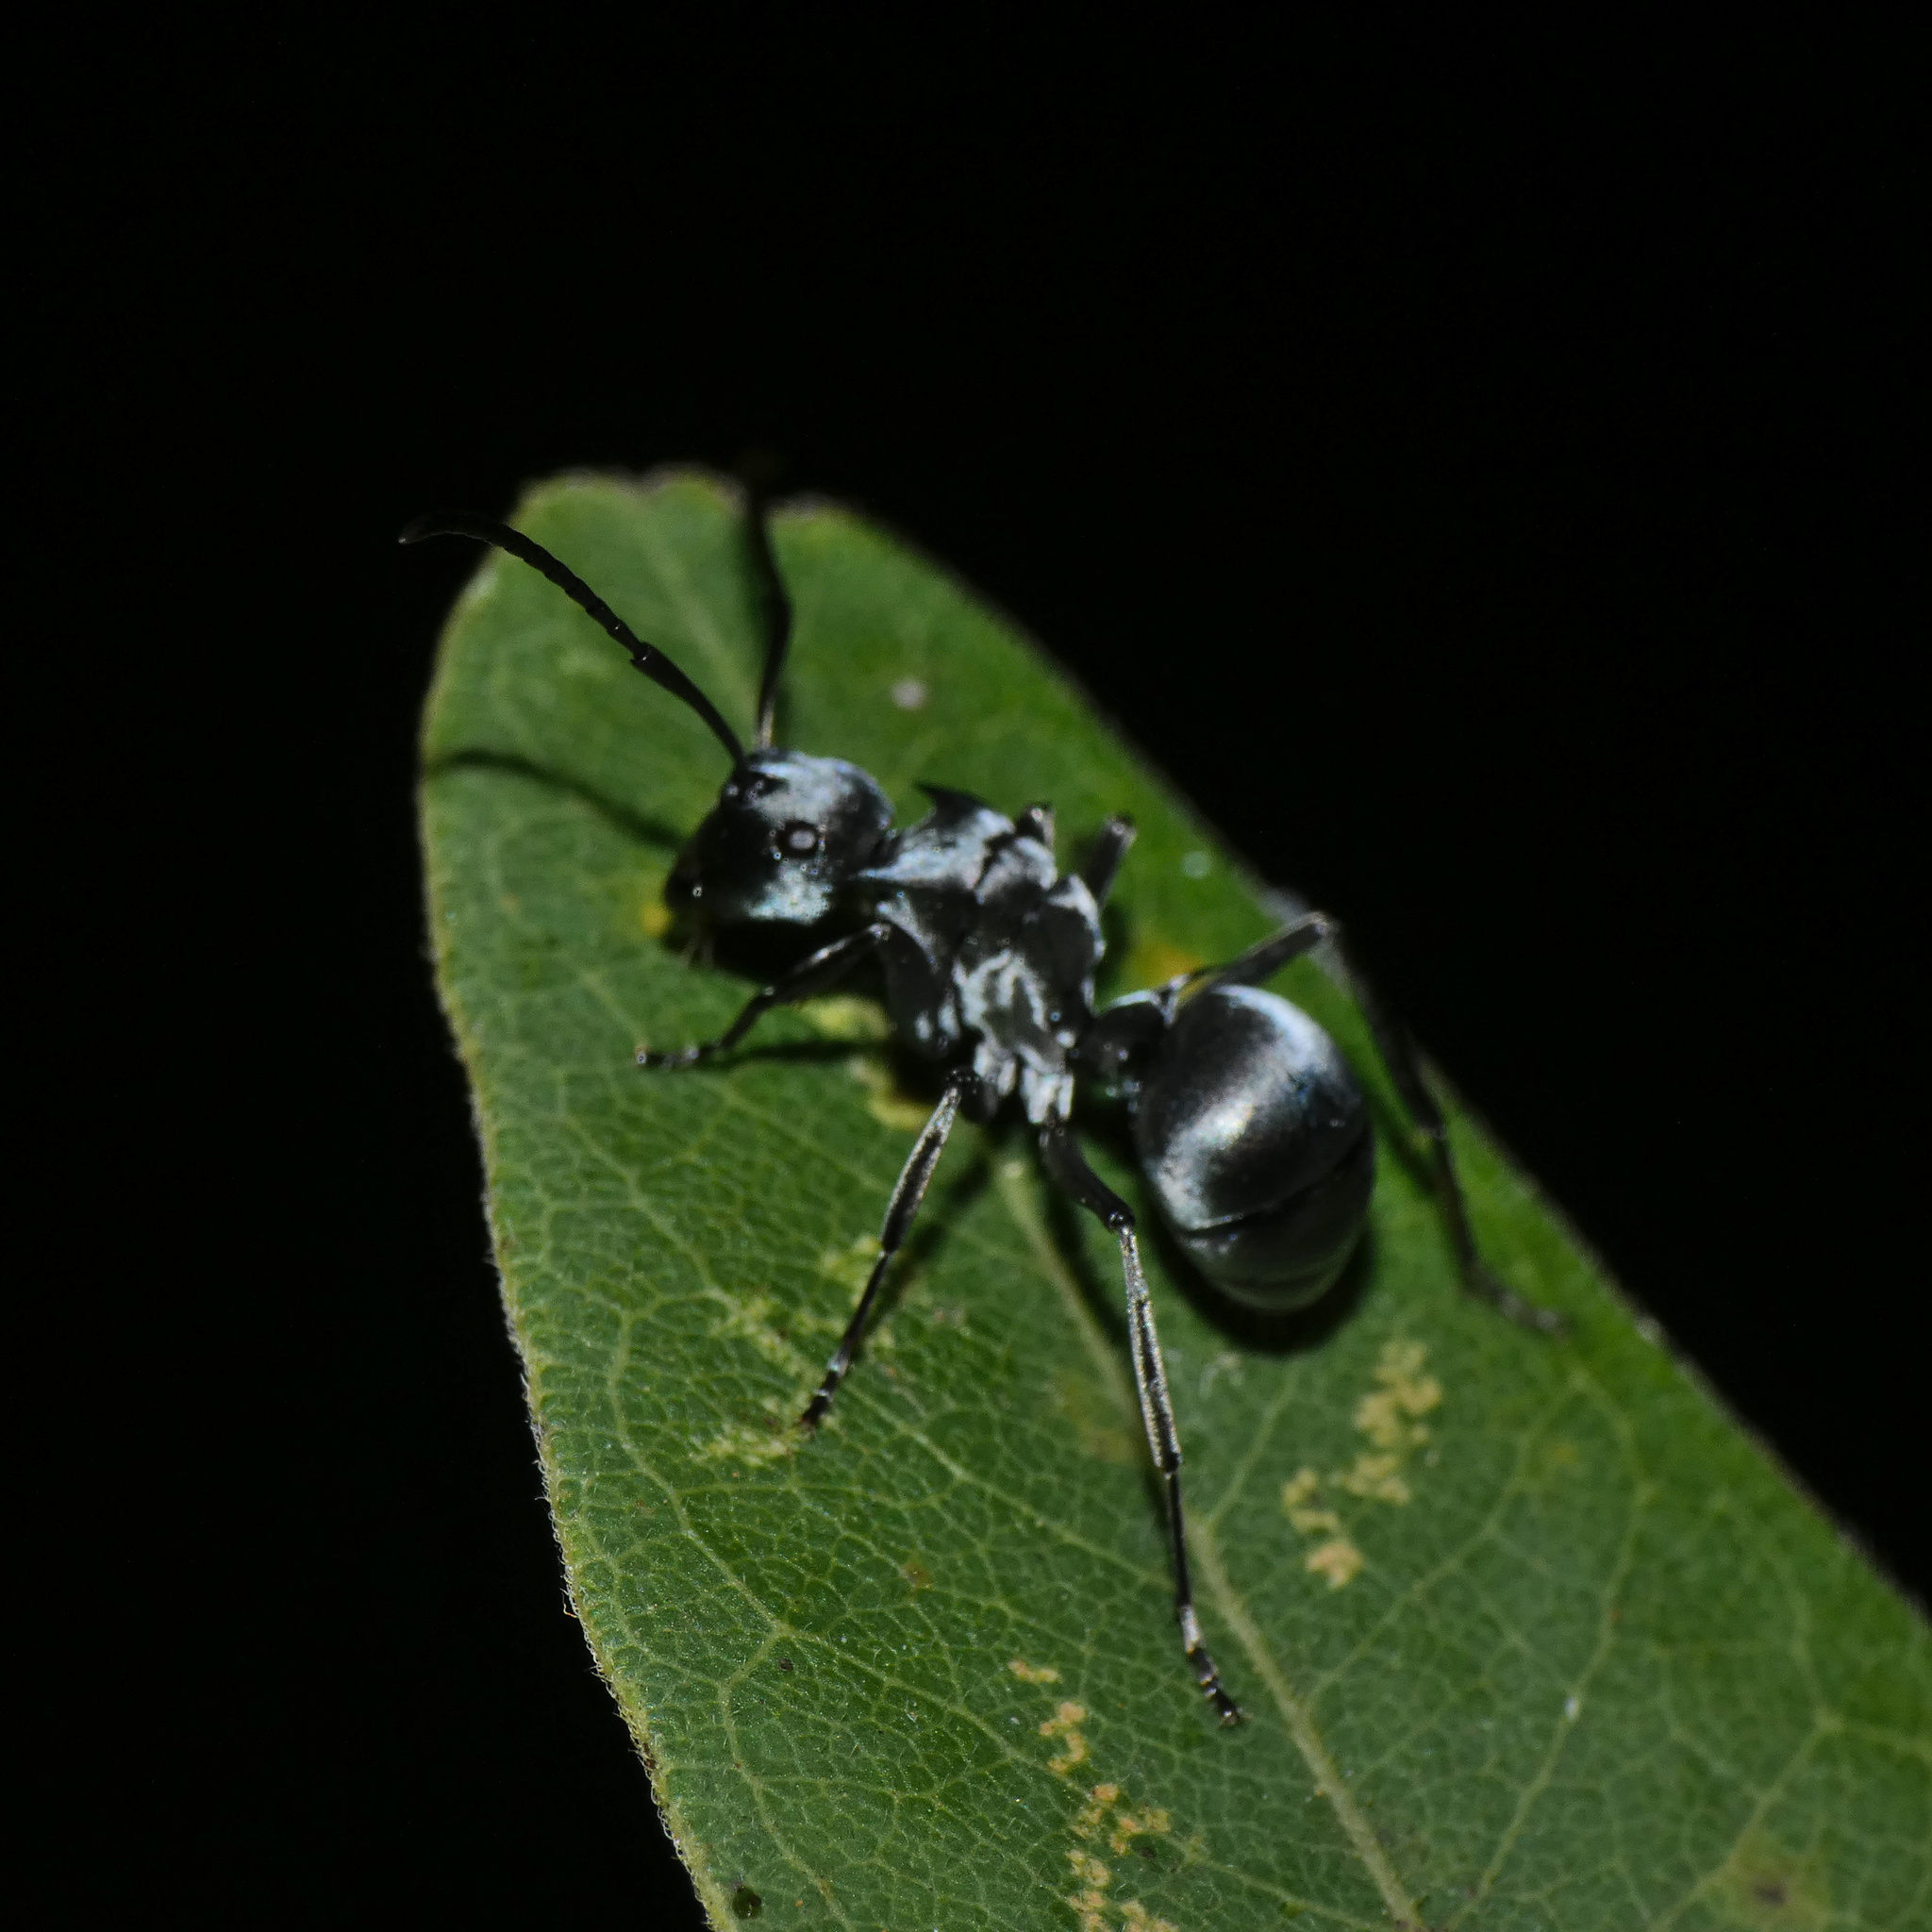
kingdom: Animalia
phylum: Arthropoda
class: Insecta
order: Hymenoptera
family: Formicidae
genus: Polyrhachis
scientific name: Polyrhachis schlueteri
